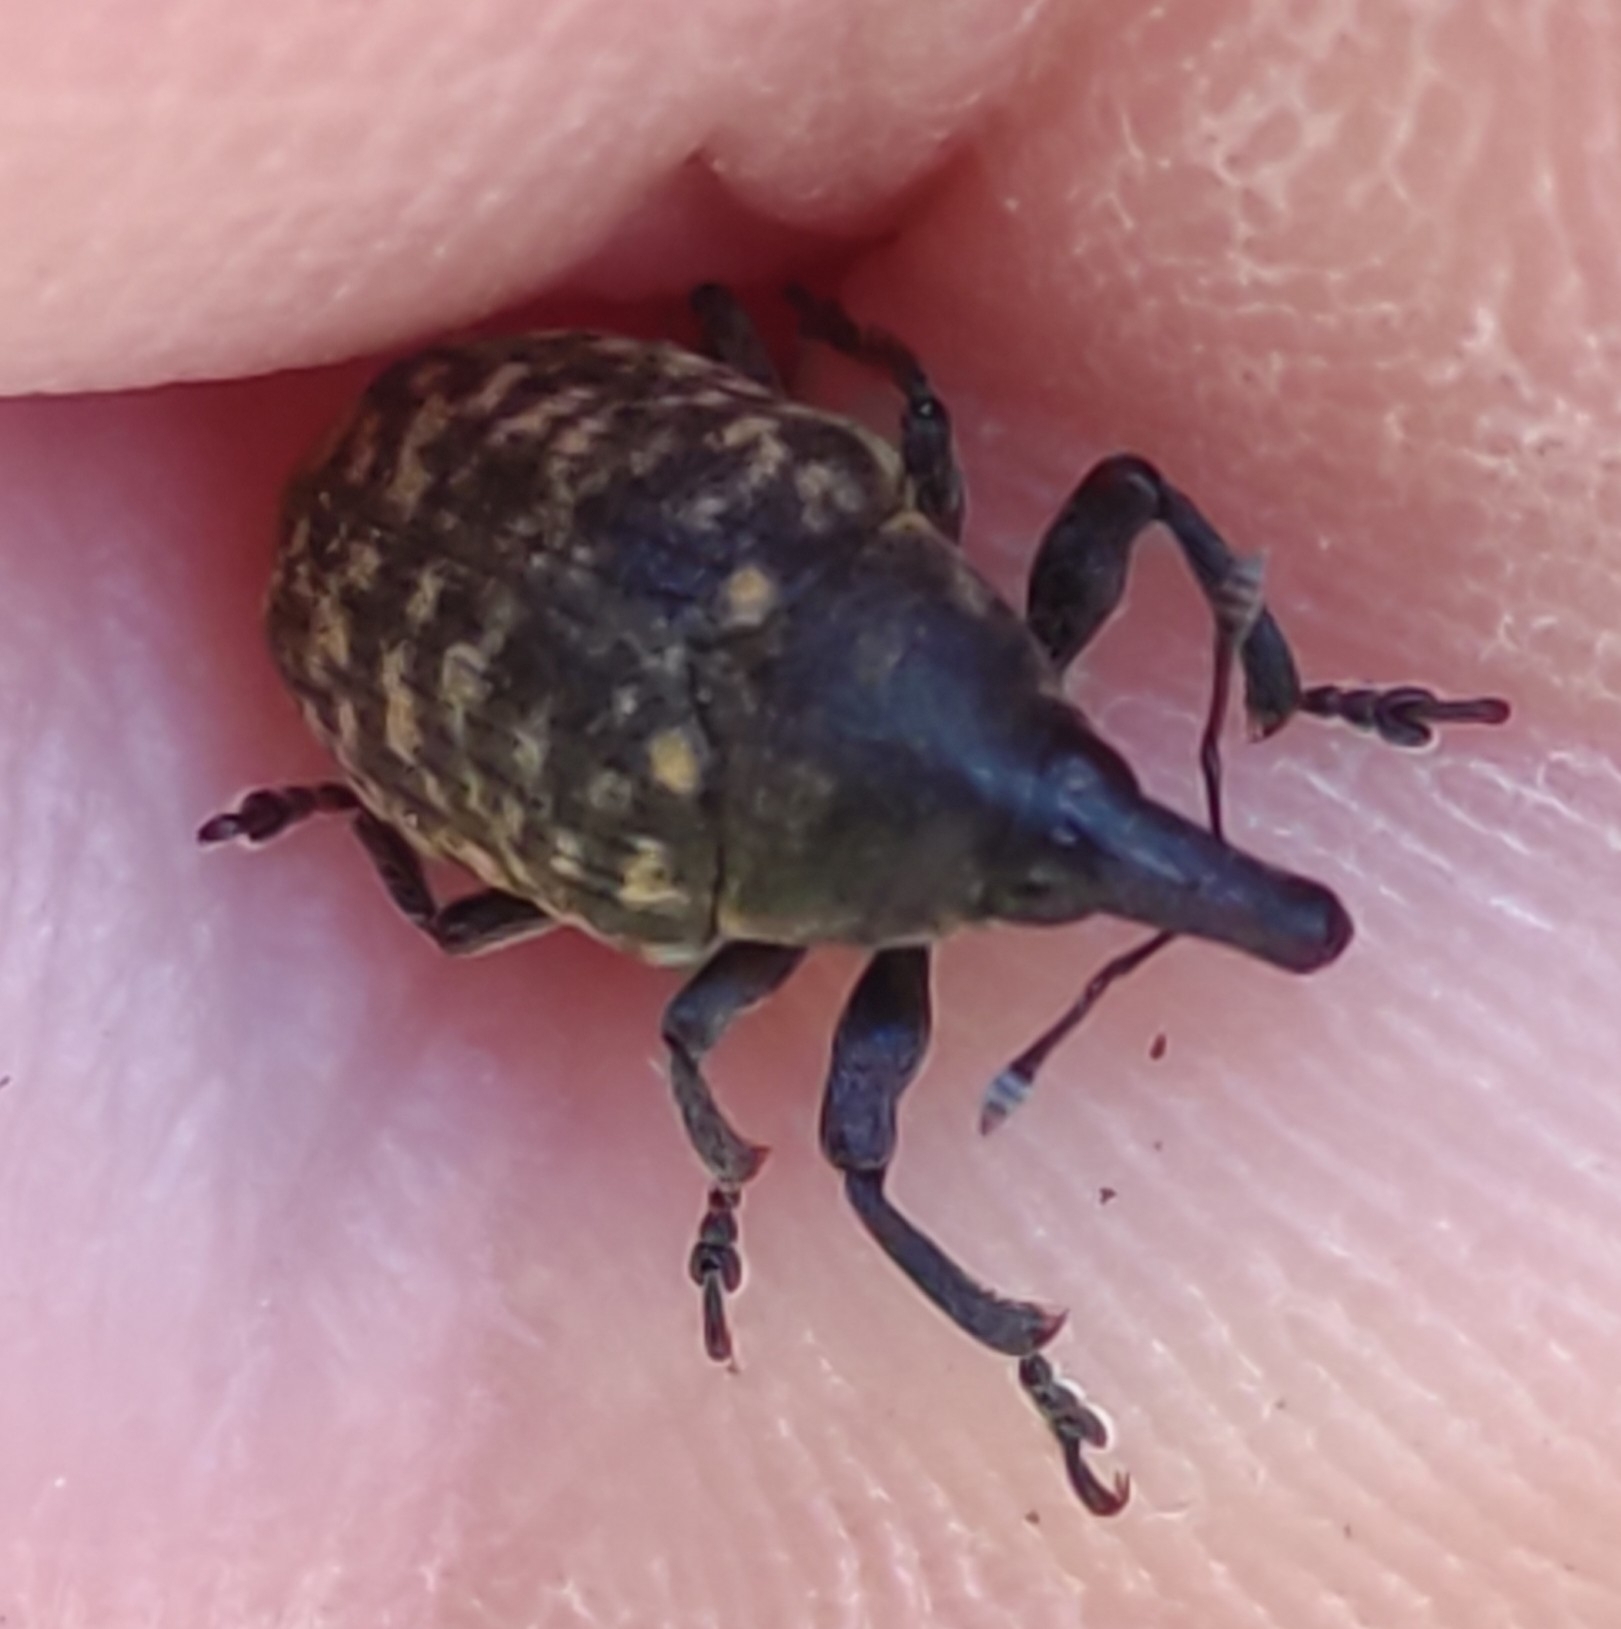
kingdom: Animalia
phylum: Arthropoda
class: Insecta
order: Coleoptera
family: Curculionidae
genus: Larinus
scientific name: Larinus turbinatus
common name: Weevil
